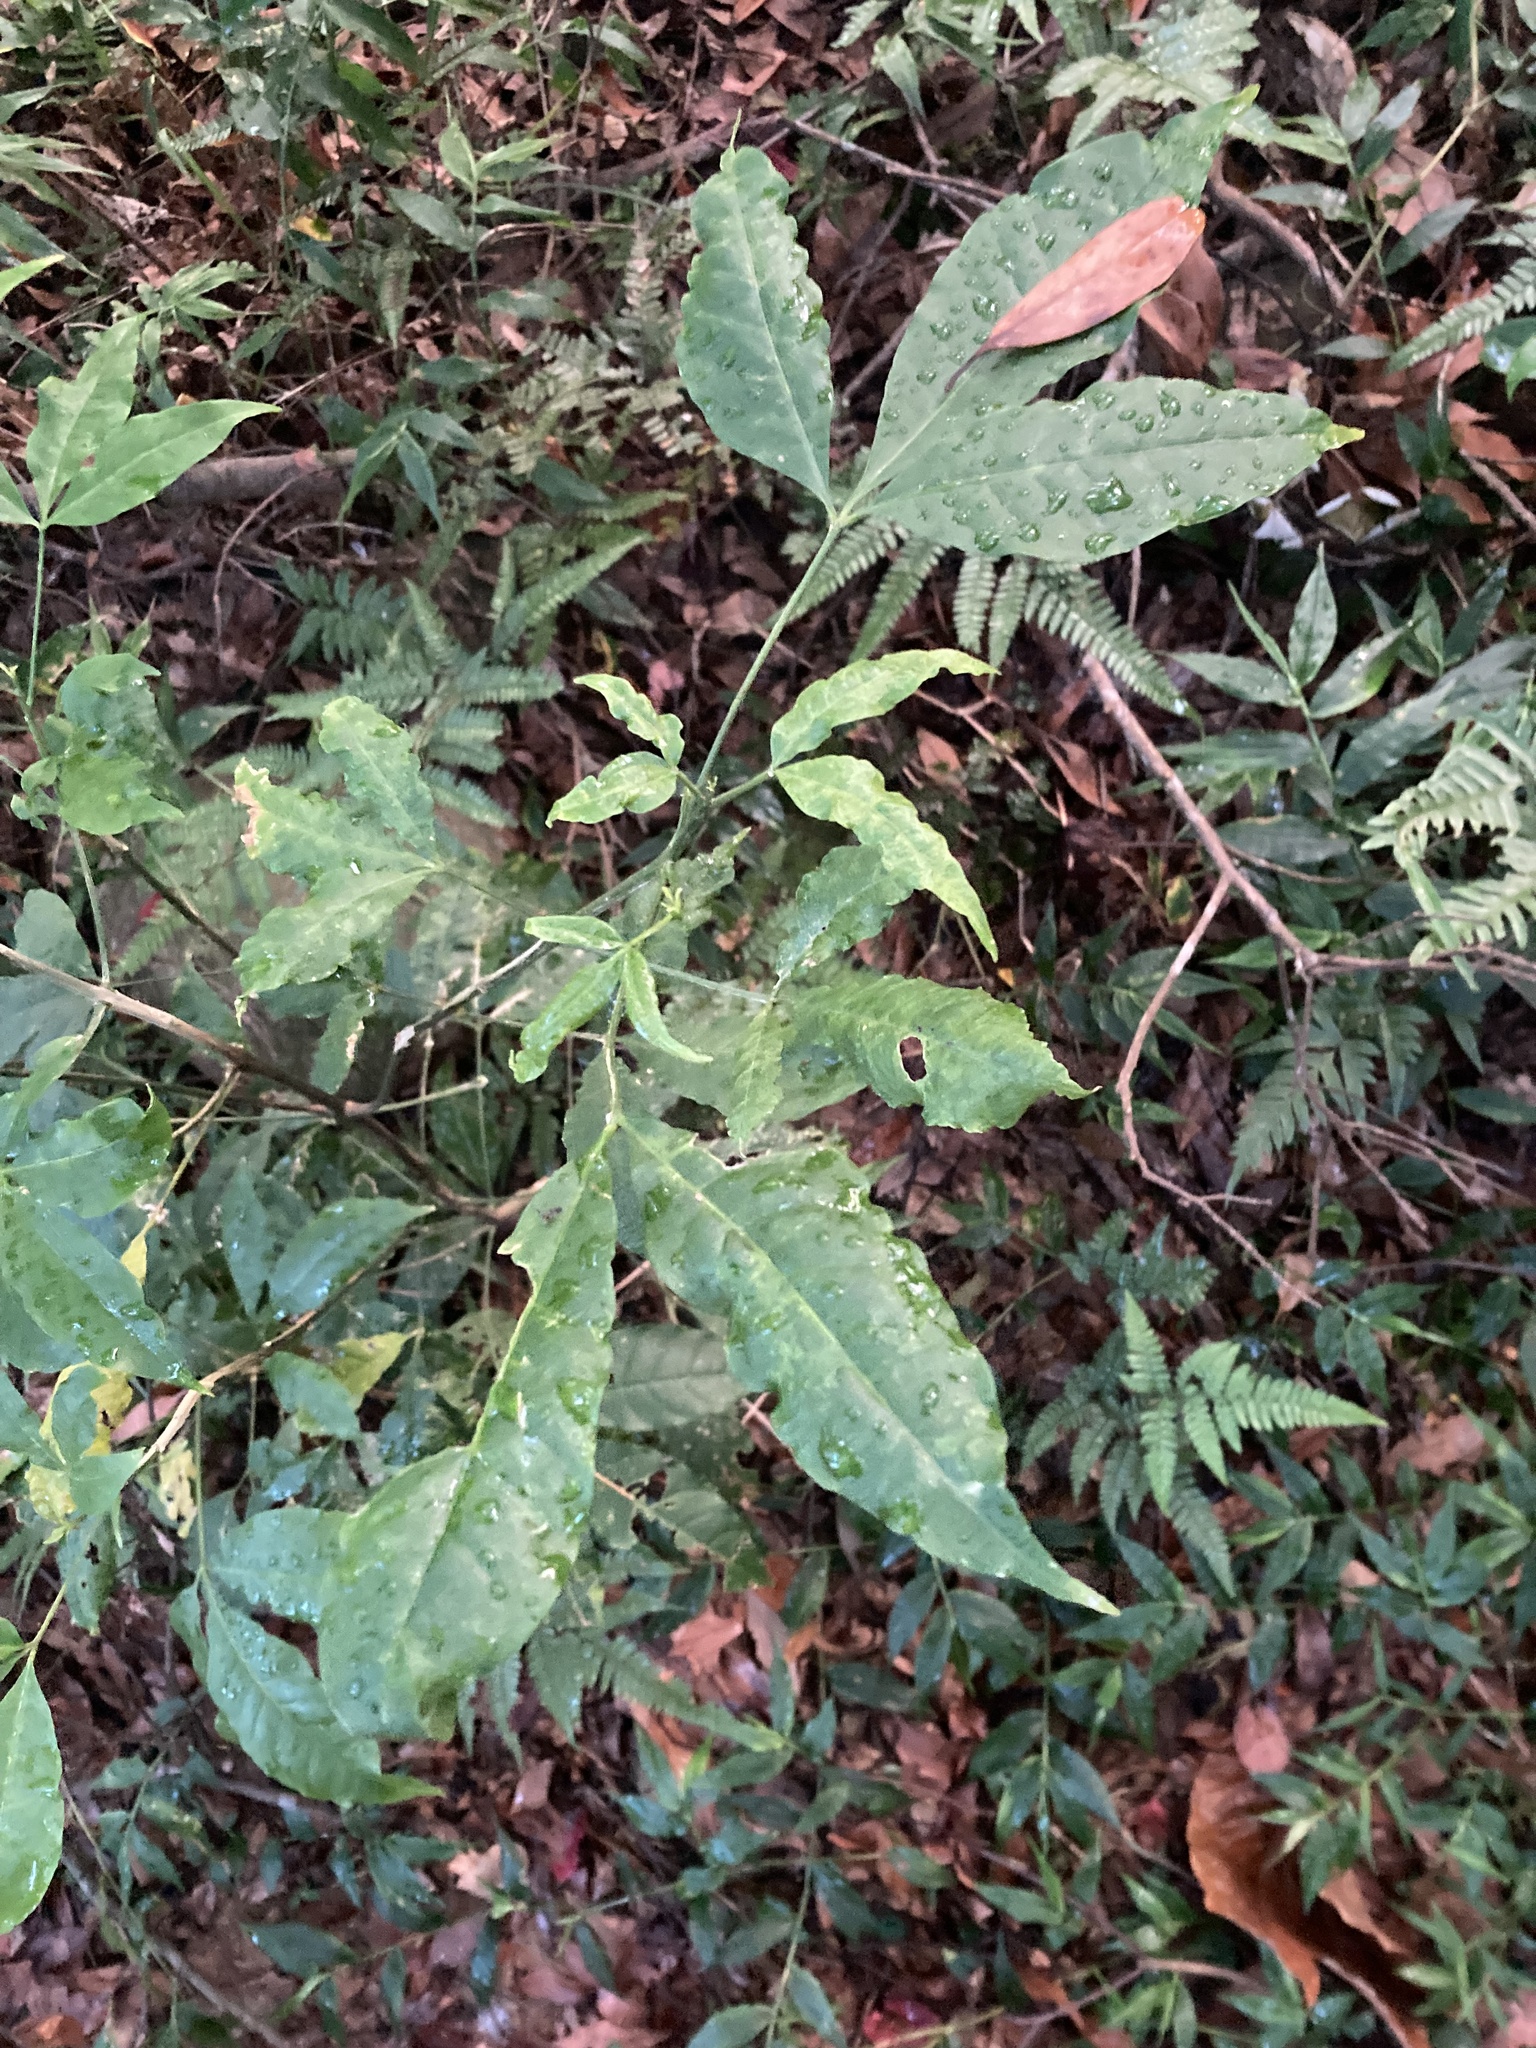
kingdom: Plantae
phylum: Tracheophyta
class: Magnoliopsida
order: Sapindales
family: Rutaceae
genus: Melicope
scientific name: Melicope pteleifolia
